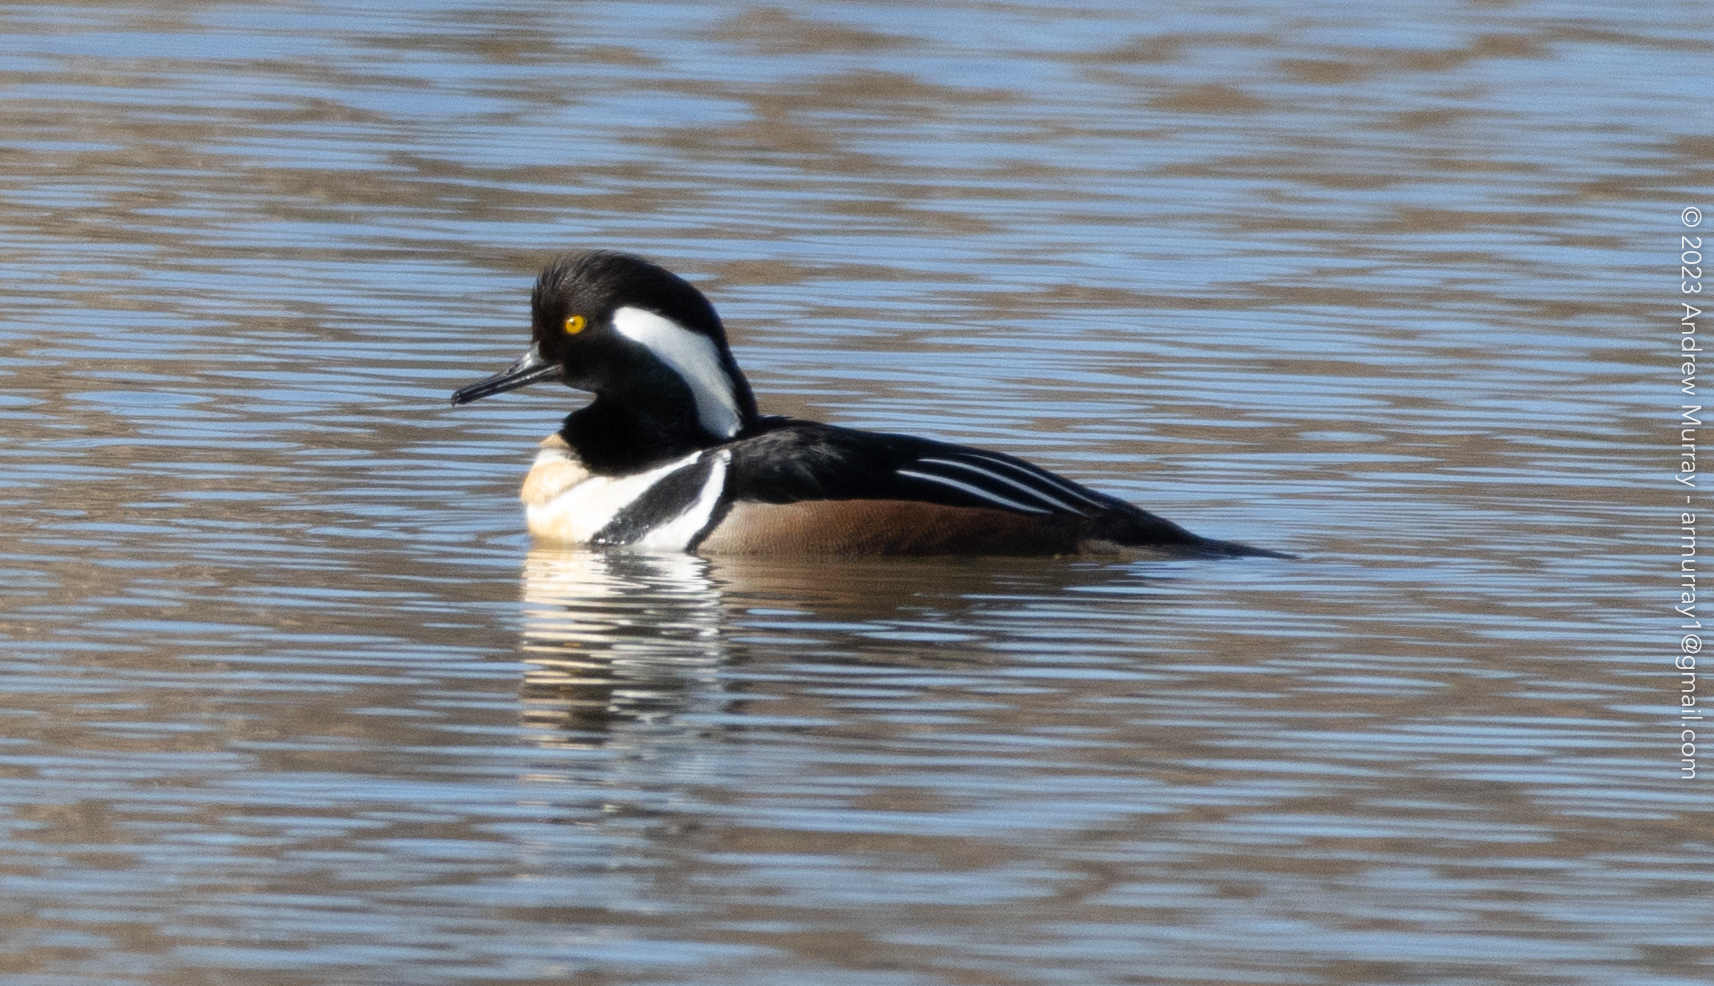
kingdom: Animalia
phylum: Chordata
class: Aves
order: Anseriformes
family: Anatidae
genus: Lophodytes
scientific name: Lophodytes cucullatus
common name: Hooded merganser
